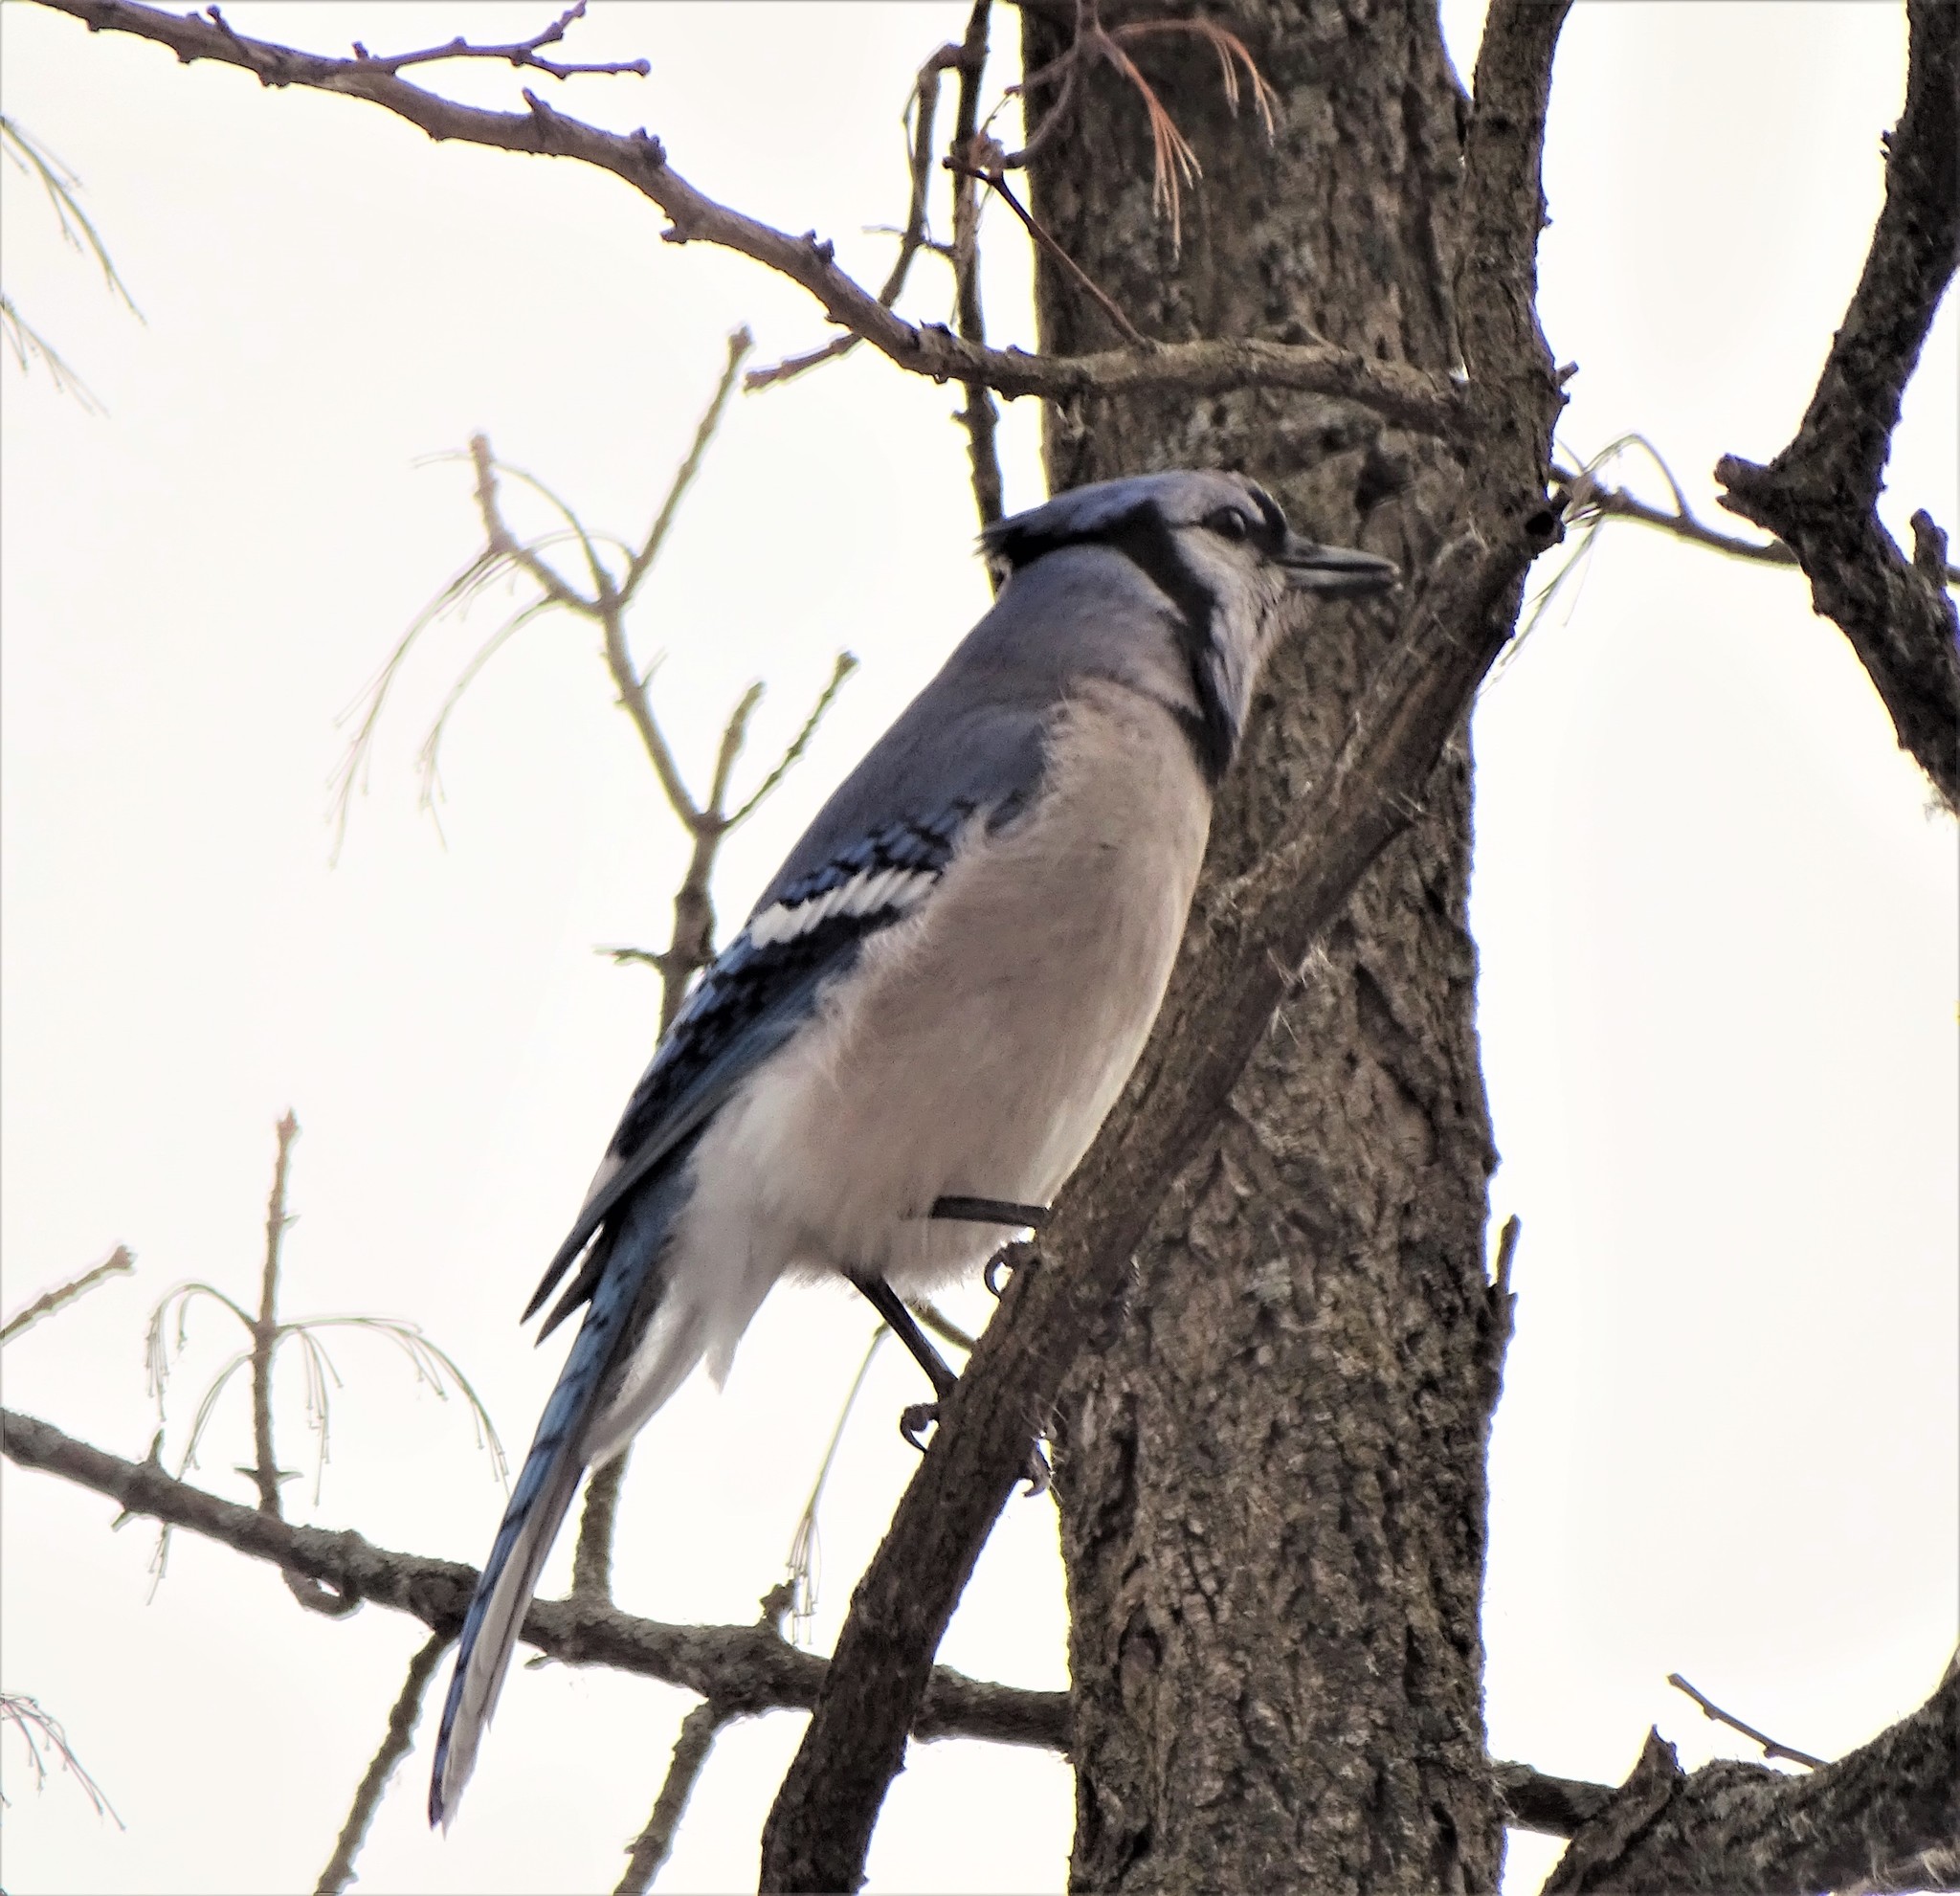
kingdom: Animalia
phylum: Chordata
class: Aves
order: Passeriformes
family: Corvidae
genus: Cyanocitta
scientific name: Cyanocitta cristata
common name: Blue jay
